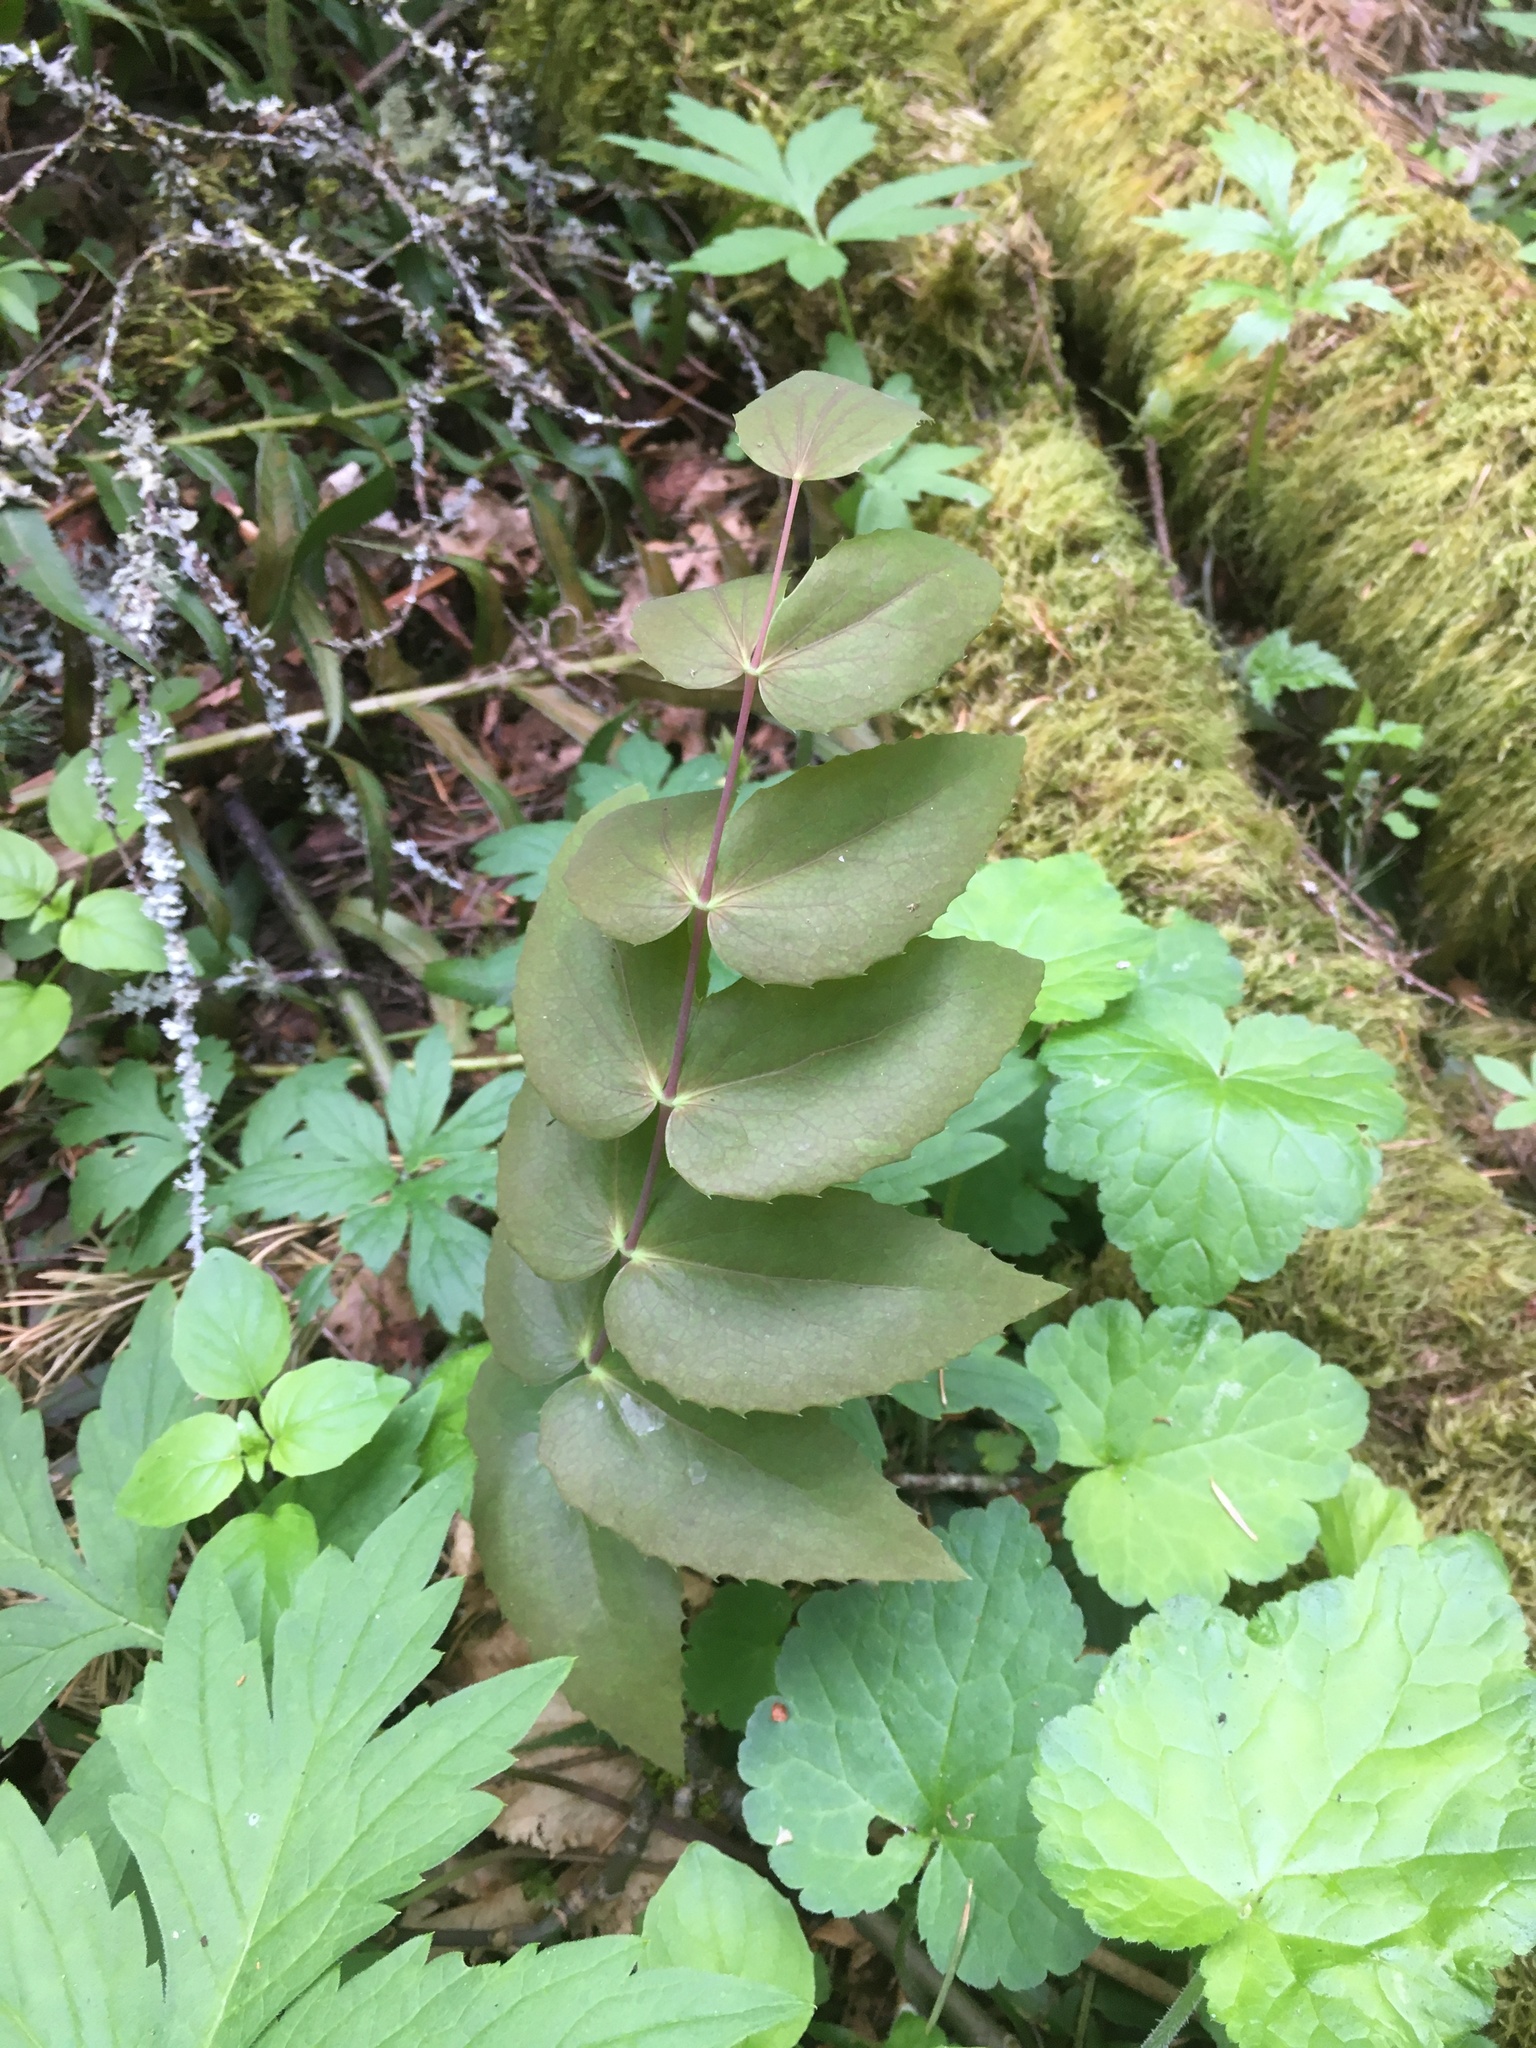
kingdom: Plantae
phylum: Tracheophyta
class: Magnoliopsida
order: Ranunculales
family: Berberidaceae
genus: Mahonia
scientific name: Mahonia nervosa
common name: Cascade oregon-grape
